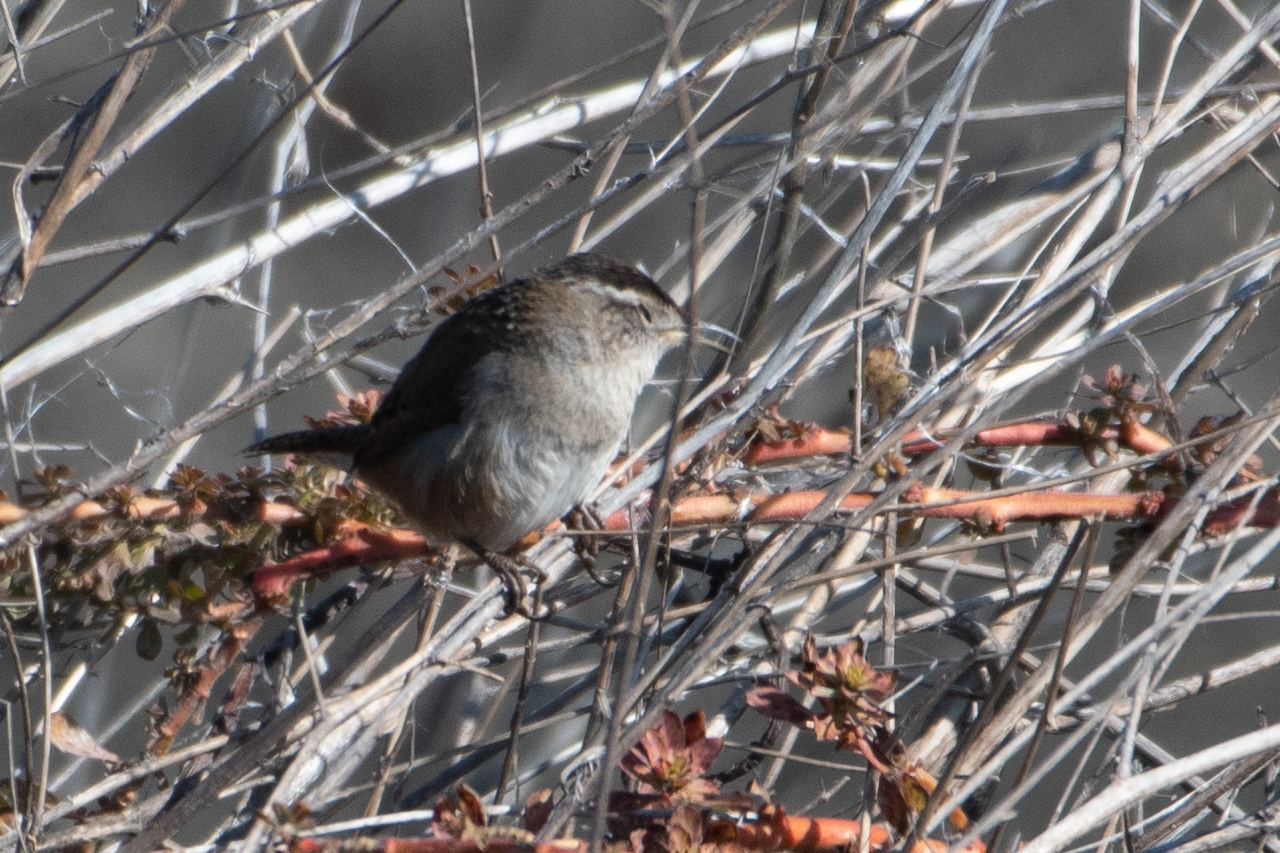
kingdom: Animalia
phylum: Chordata
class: Aves
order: Passeriformes
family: Troglodytidae
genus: Cistothorus
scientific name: Cistothorus palustris
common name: Marsh wren
